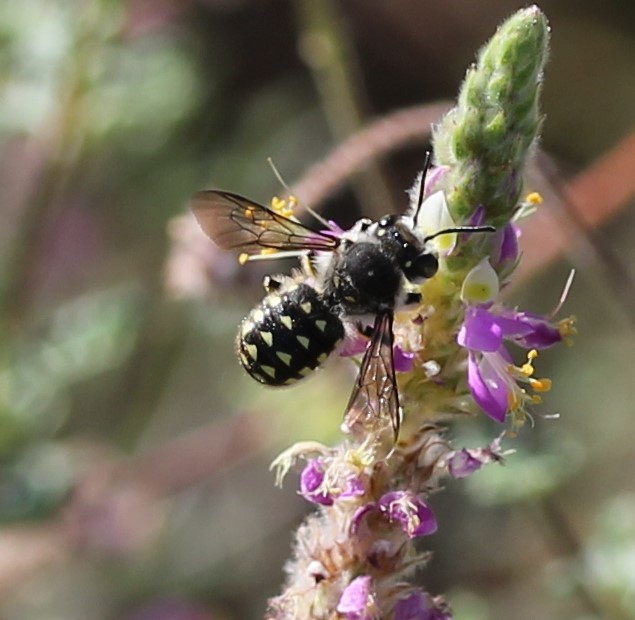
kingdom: Animalia
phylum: Arthropoda
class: Insecta
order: Hymenoptera
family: Megachilidae
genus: Anthidium
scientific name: Anthidium maculosum
